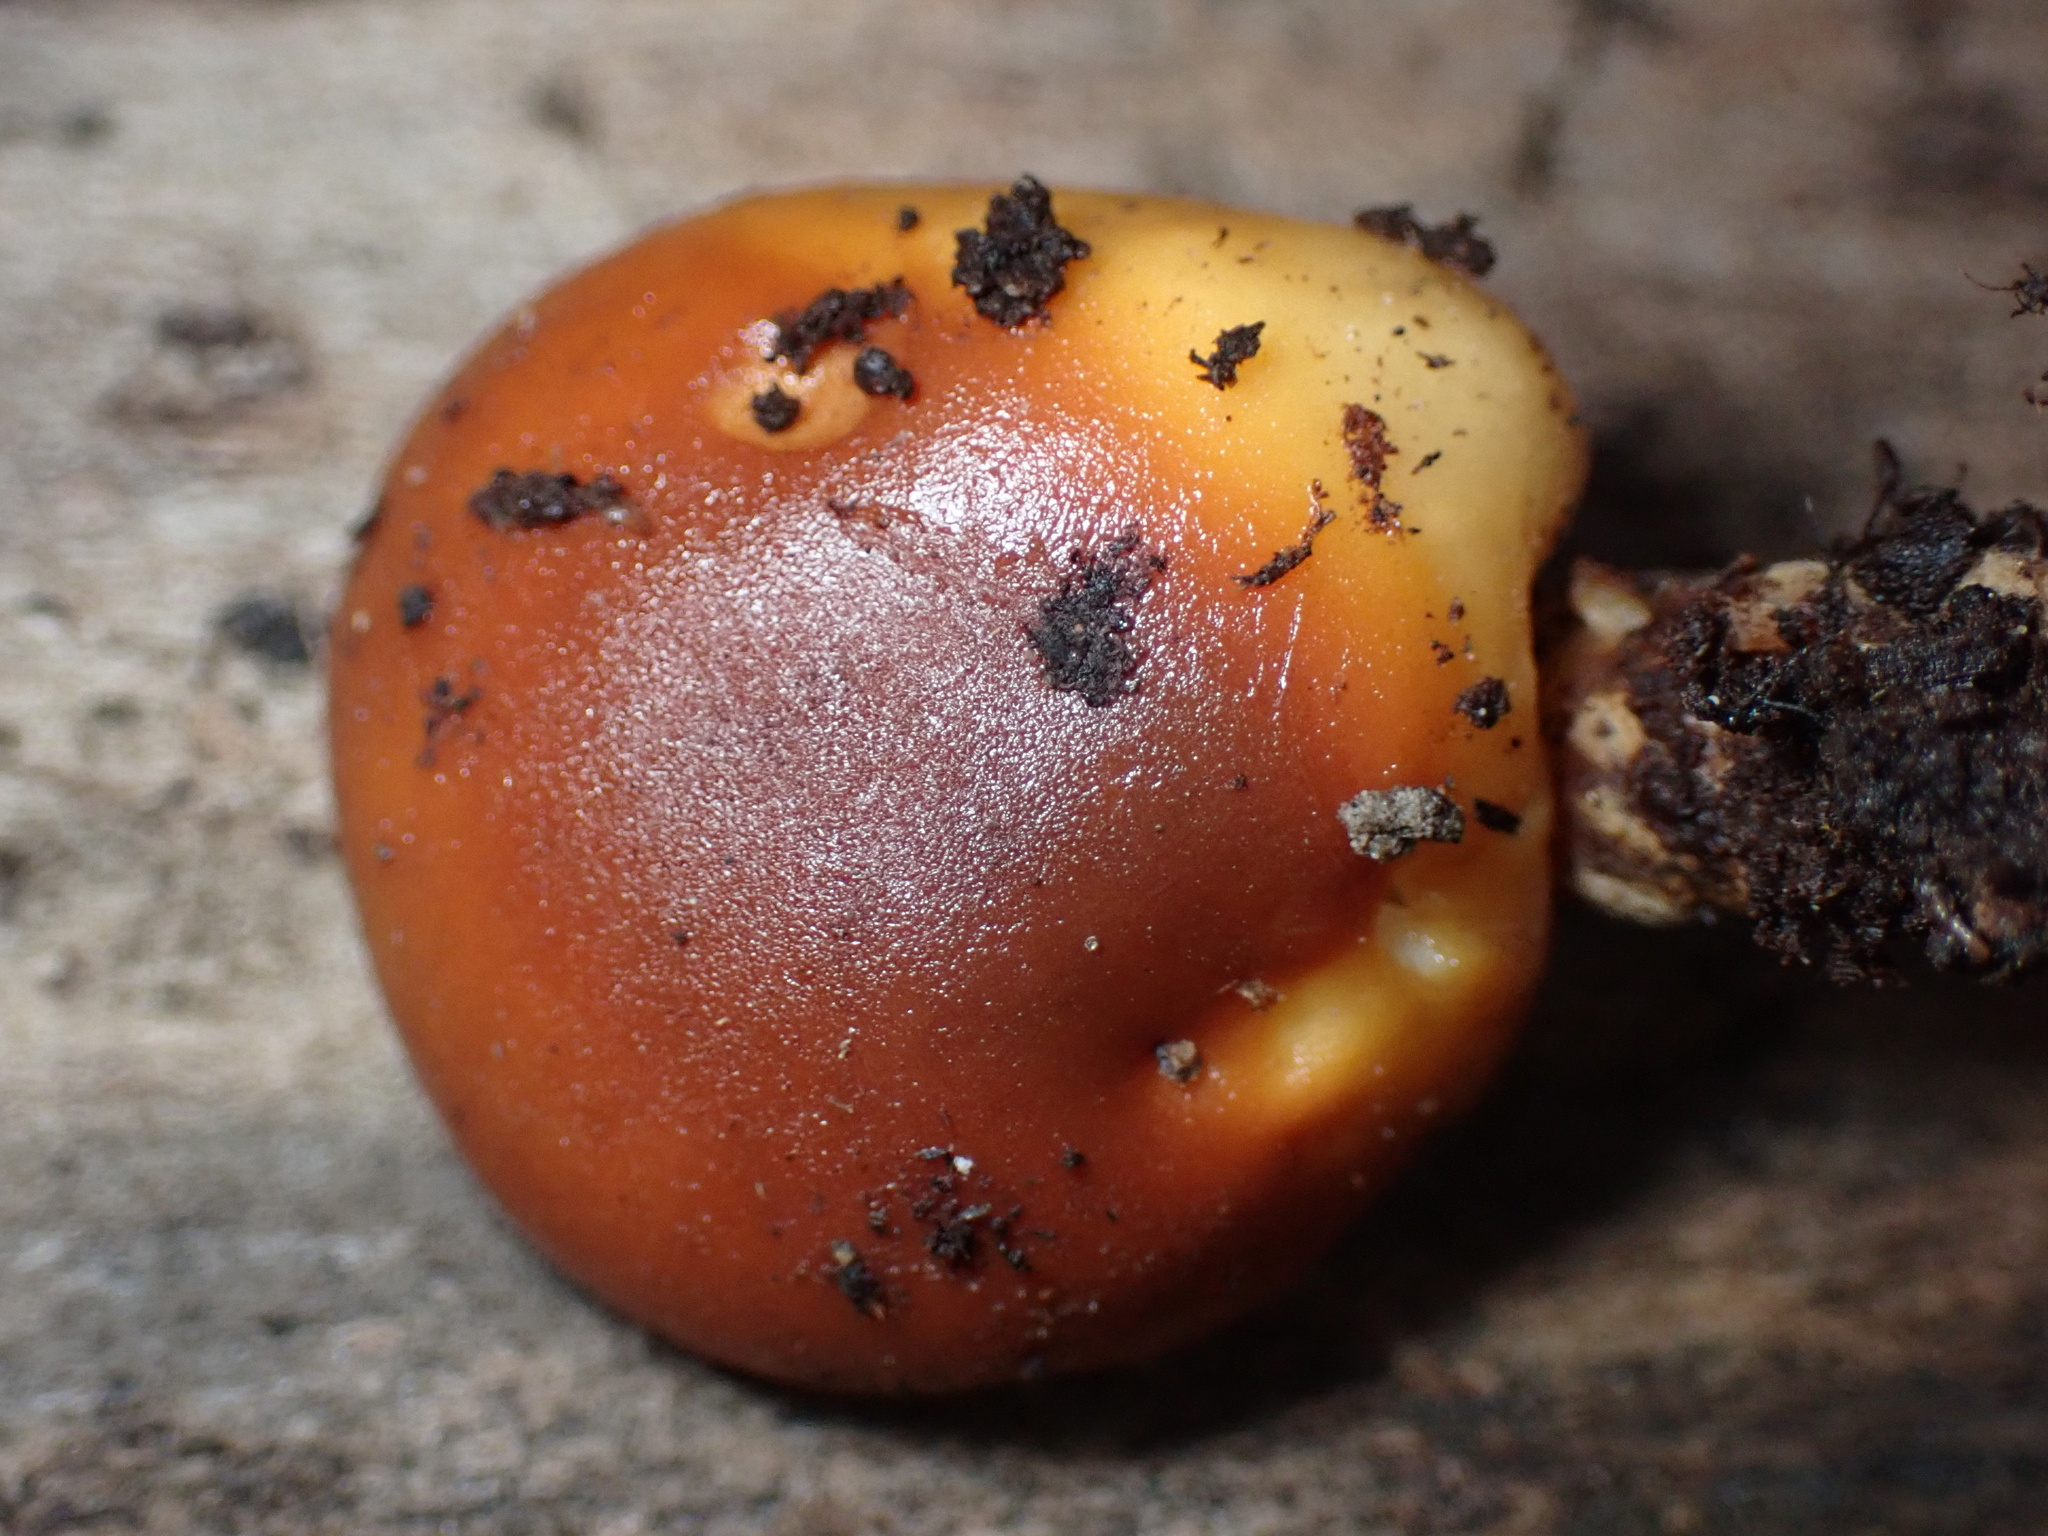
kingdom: Fungi
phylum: Basidiomycota
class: Agaricomycetes
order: Agaricales
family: Physalacriaceae
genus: Flammulina
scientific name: Flammulina velutipes
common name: Velvet shank
